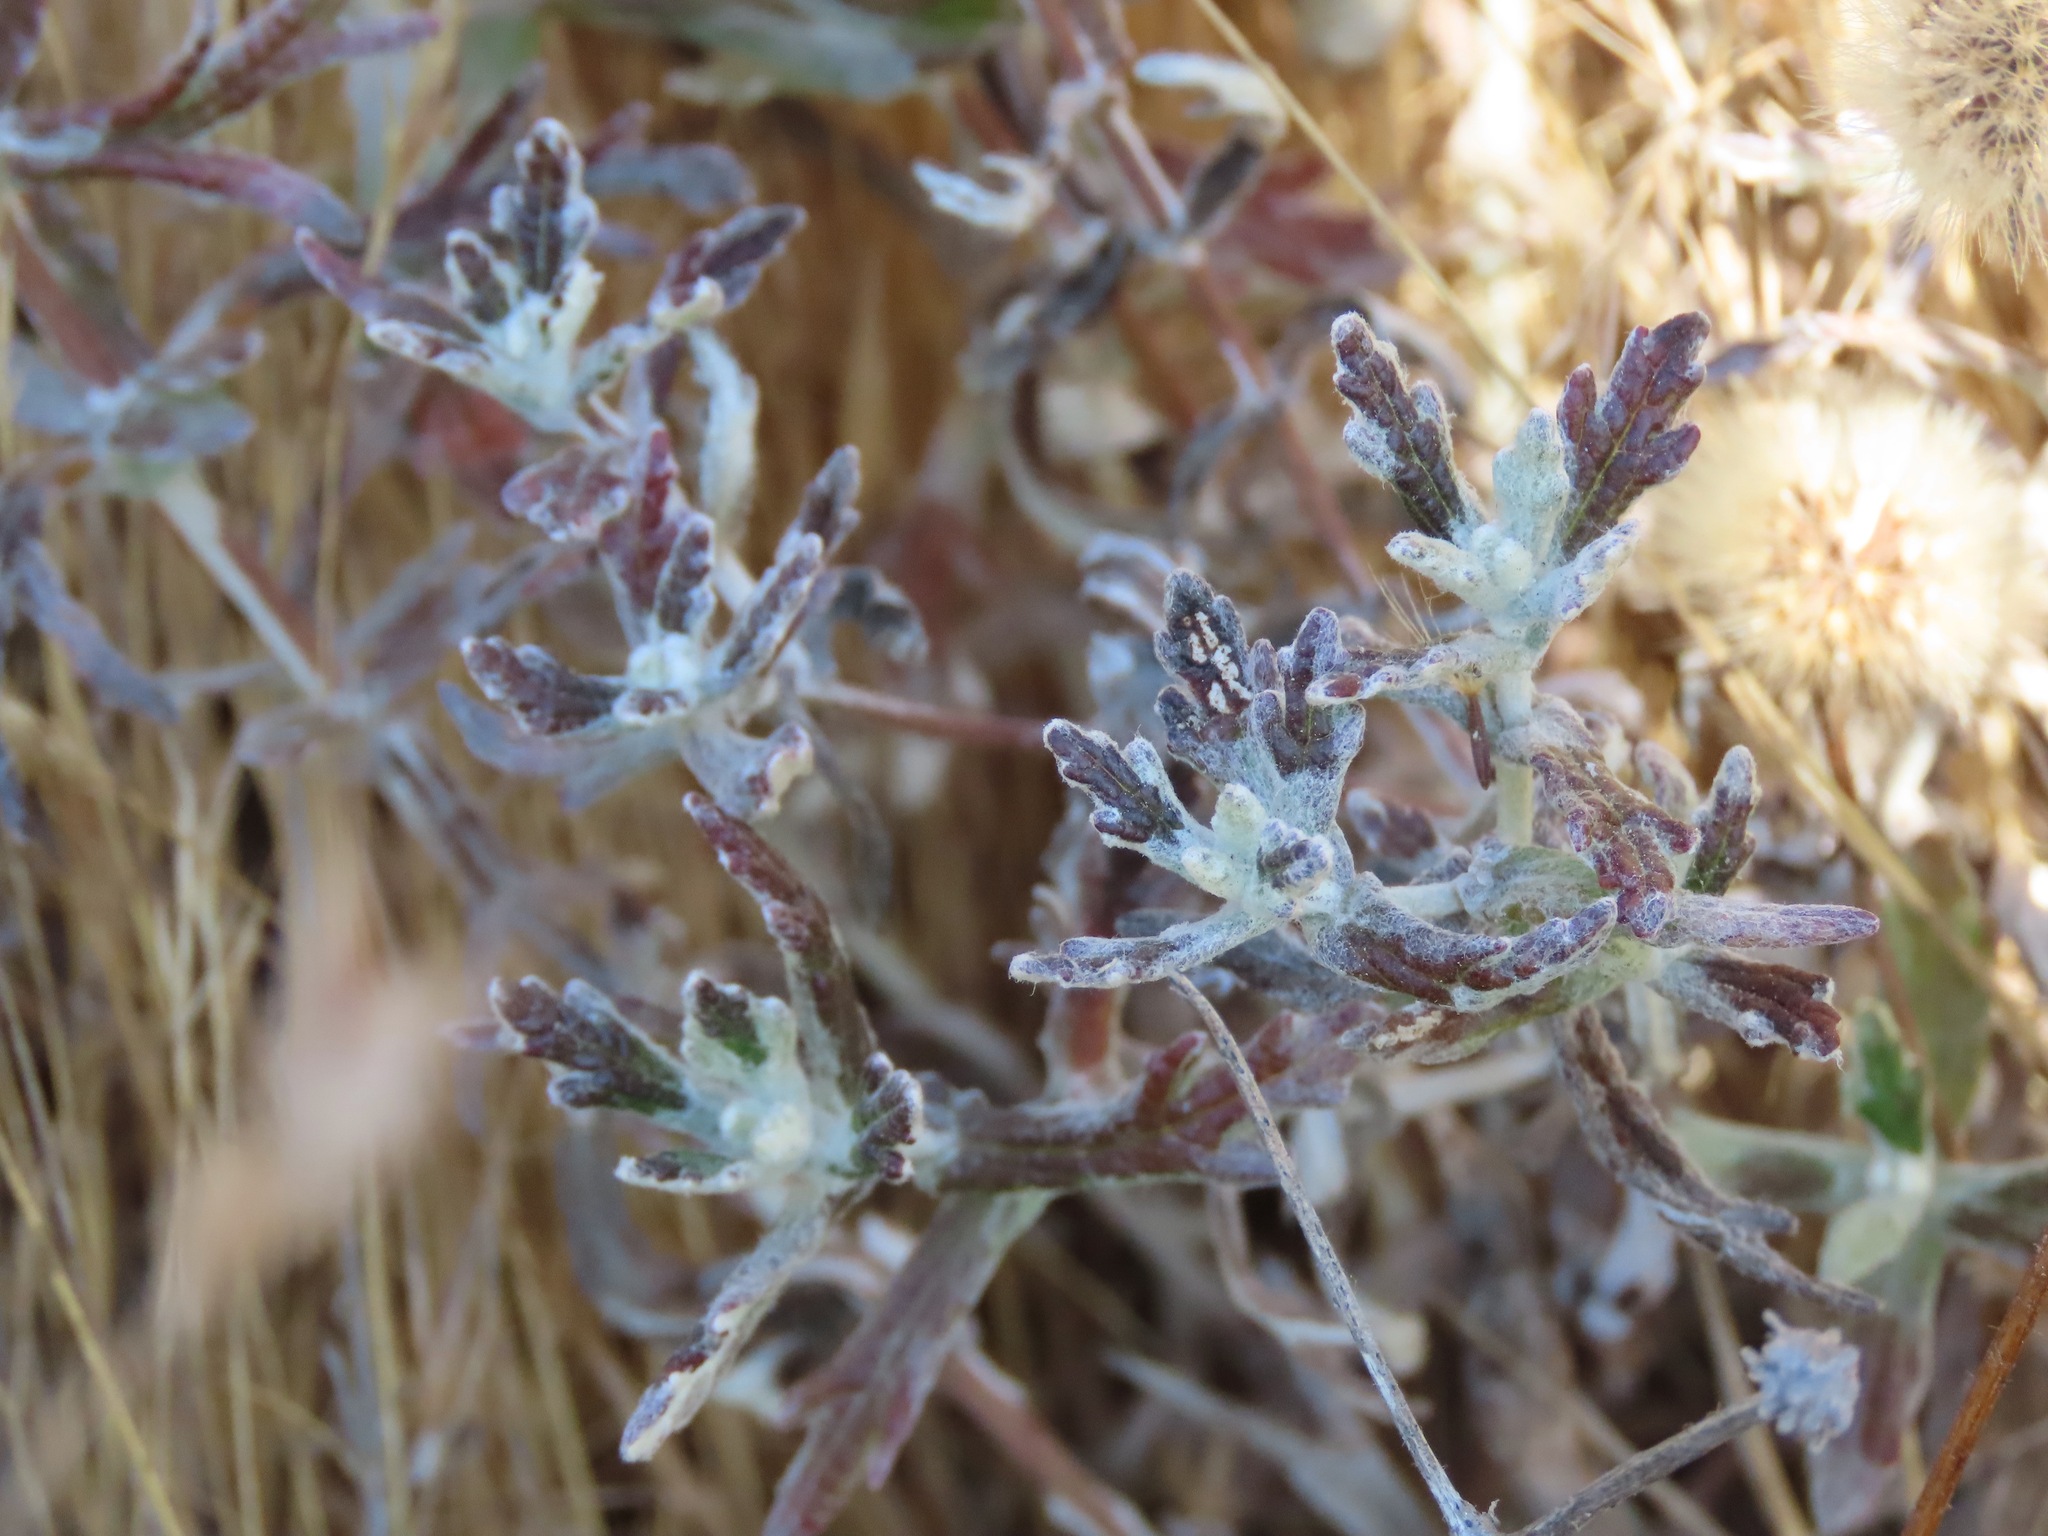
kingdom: Plantae
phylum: Tracheophyta
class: Magnoliopsida
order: Asterales
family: Asteraceae
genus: Eriophyllum
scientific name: Eriophyllum lanatum
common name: Common woolly-sunflower
